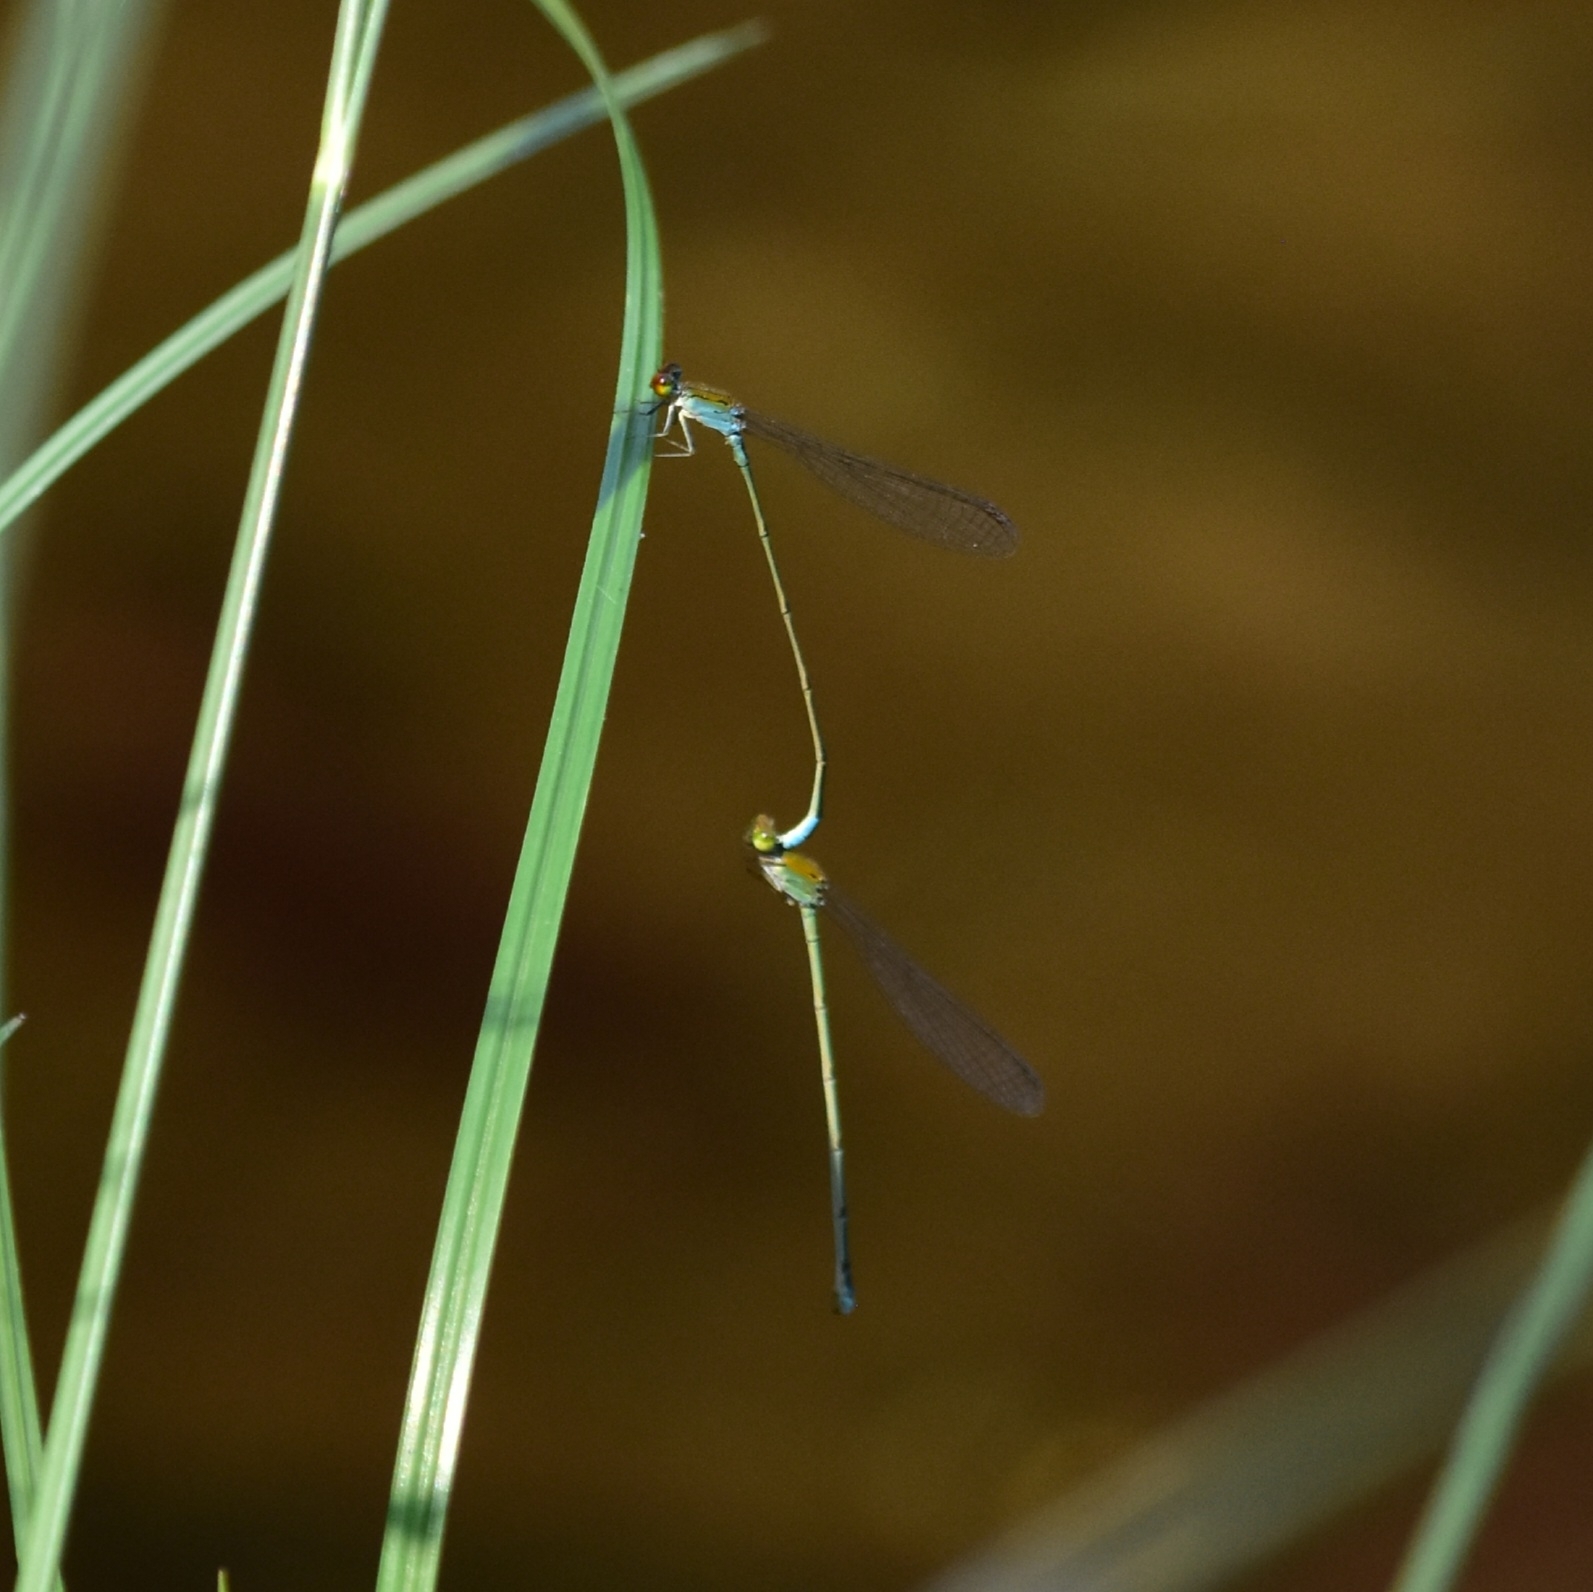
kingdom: Animalia
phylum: Arthropoda
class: Insecta
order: Odonata
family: Coenagrionidae
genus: Pseudagrion
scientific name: Pseudagrion rubriceps
